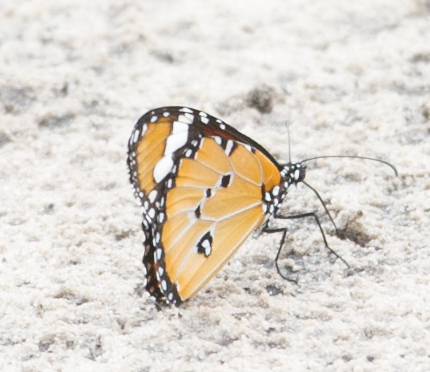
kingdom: Animalia
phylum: Arthropoda
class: Insecta
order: Lepidoptera
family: Nymphalidae
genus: Danaus
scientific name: Danaus chrysippus
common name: Plain tiger
